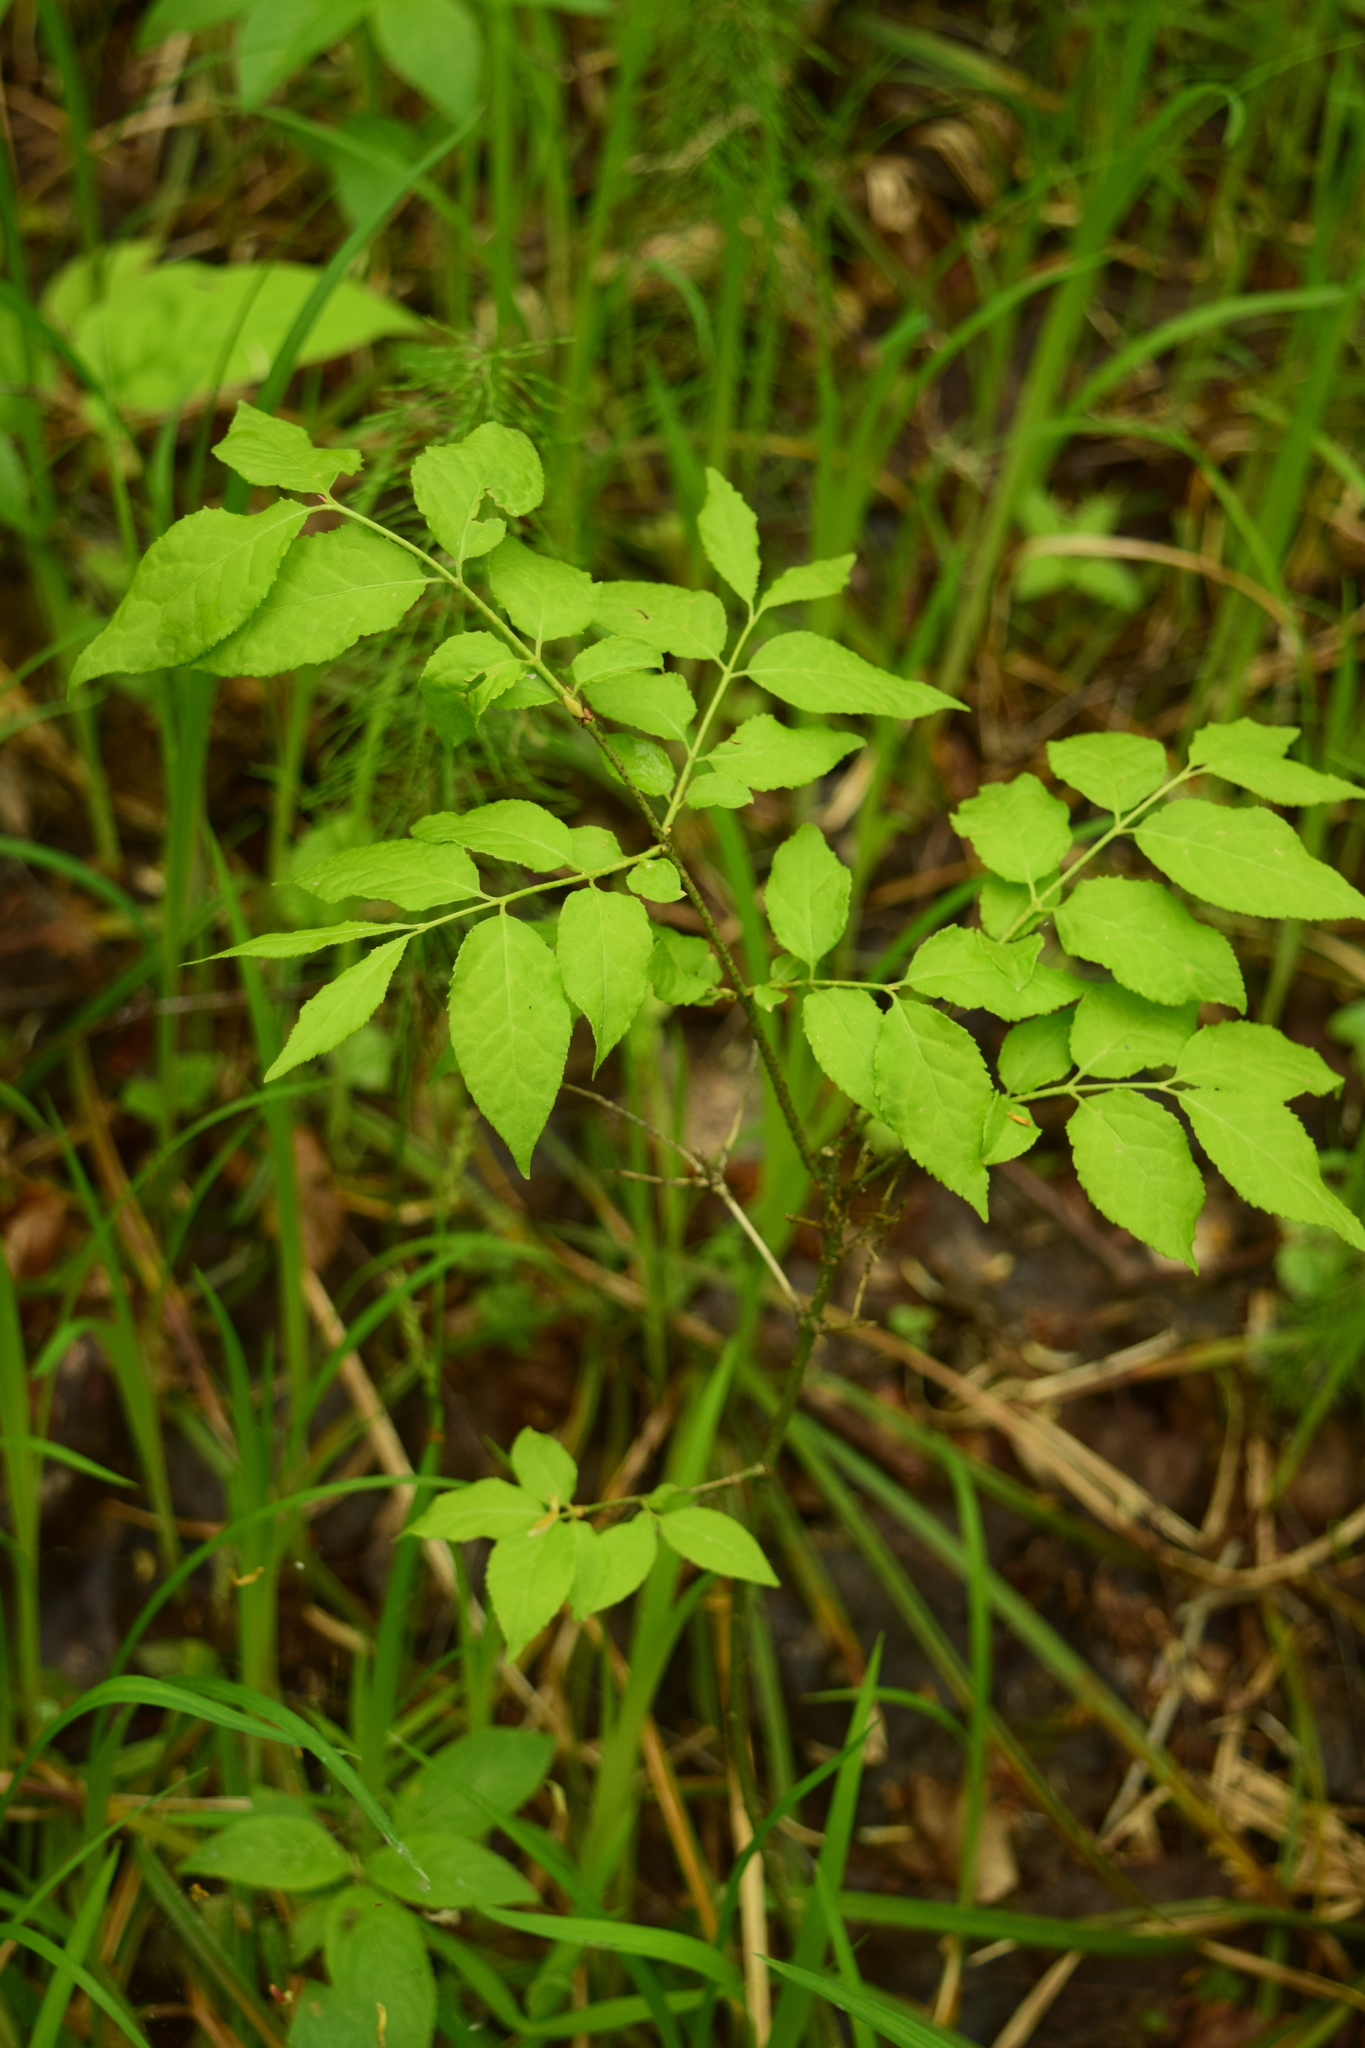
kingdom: Plantae
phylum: Tracheophyta
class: Magnoliopsida
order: Celastrales
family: Celastraceae
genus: Euonymus
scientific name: Euonymus verrucosus
